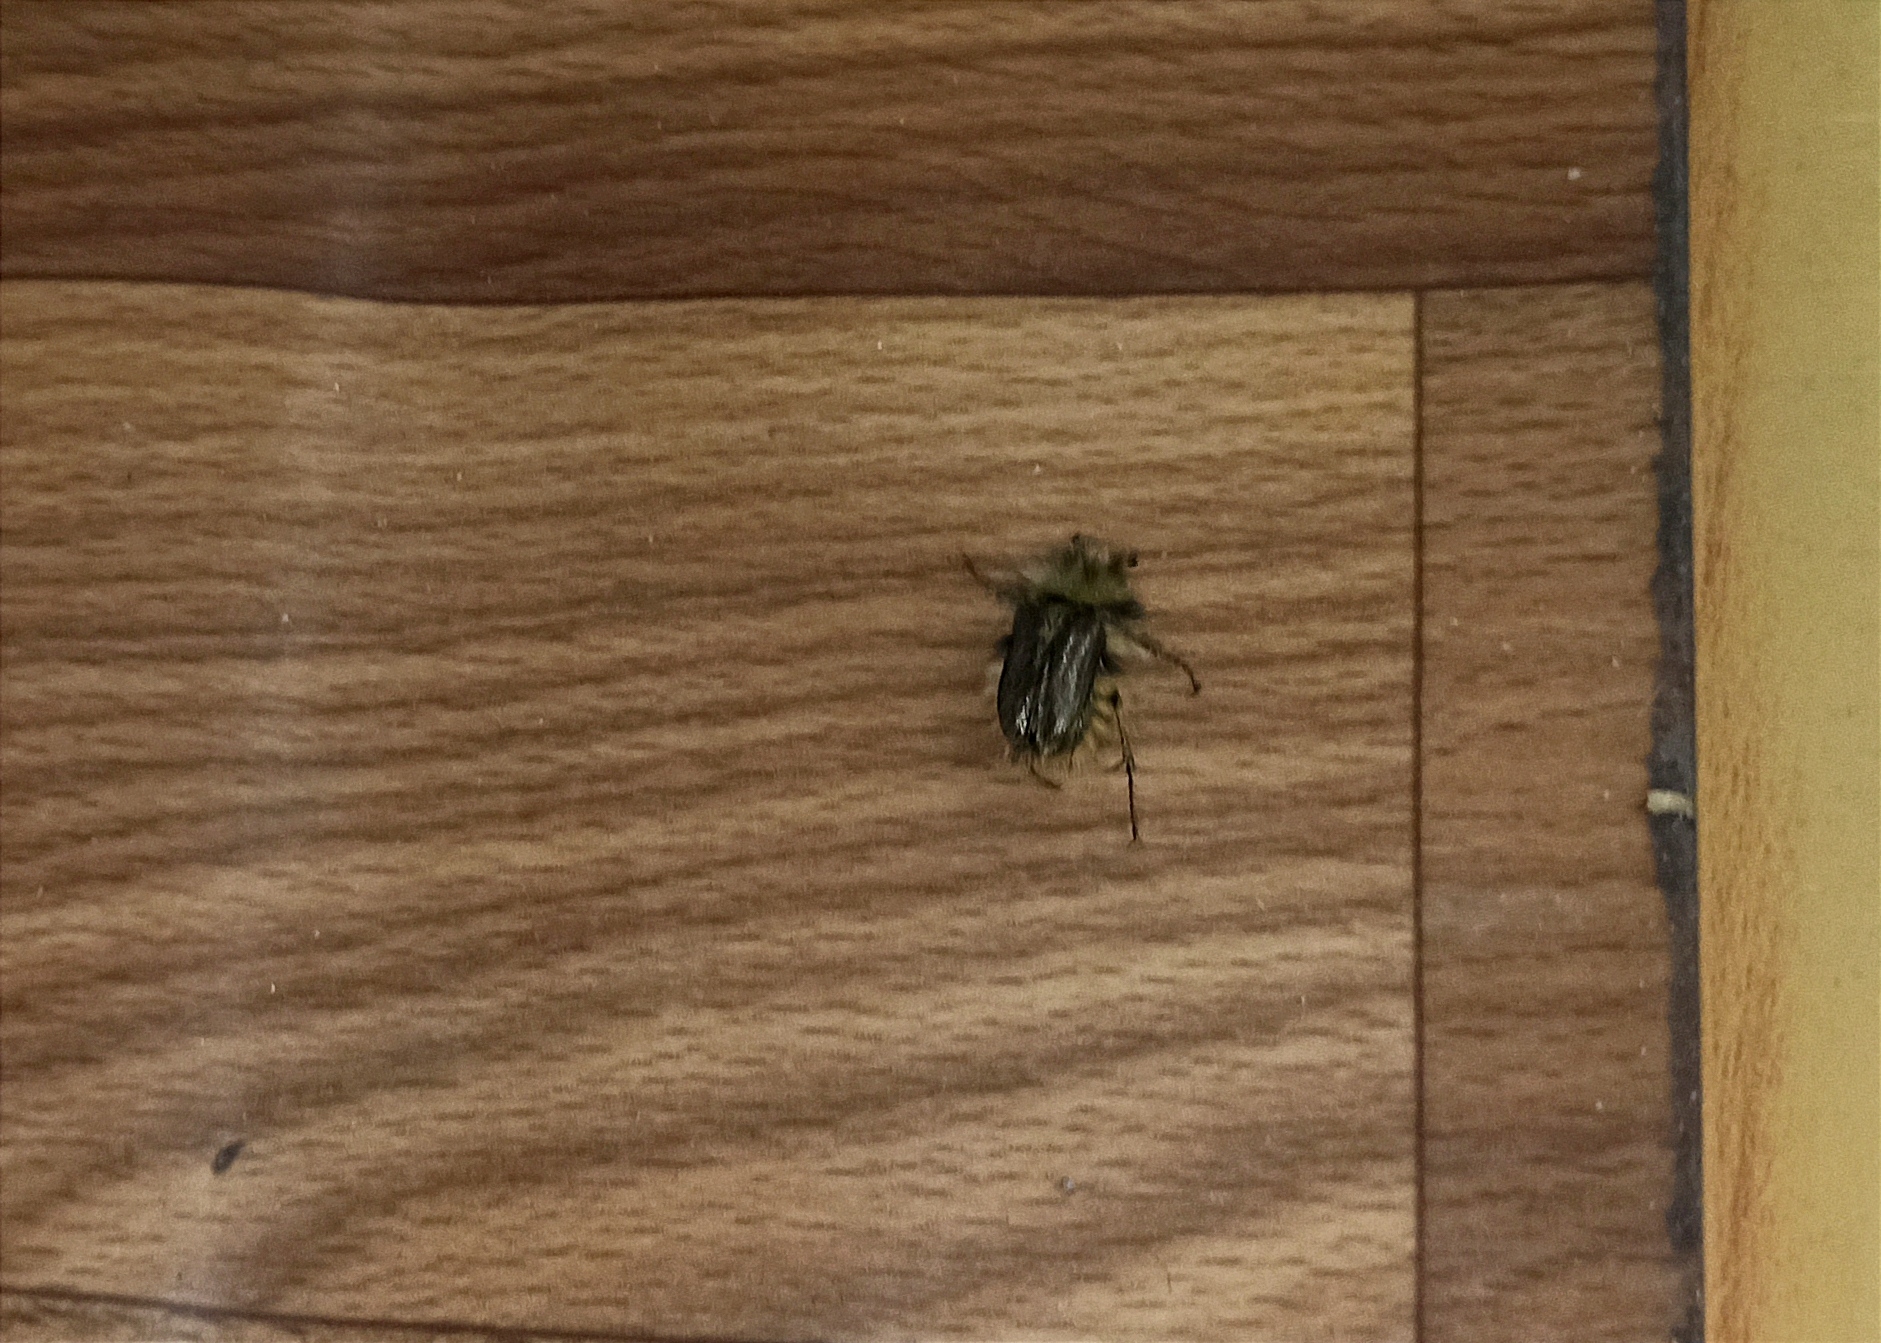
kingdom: Animalia
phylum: Arthropoda
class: Insecta
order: Coleoptera
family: Glaphyridae
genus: Pygopleurus
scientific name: Pygopleurus vulpes
